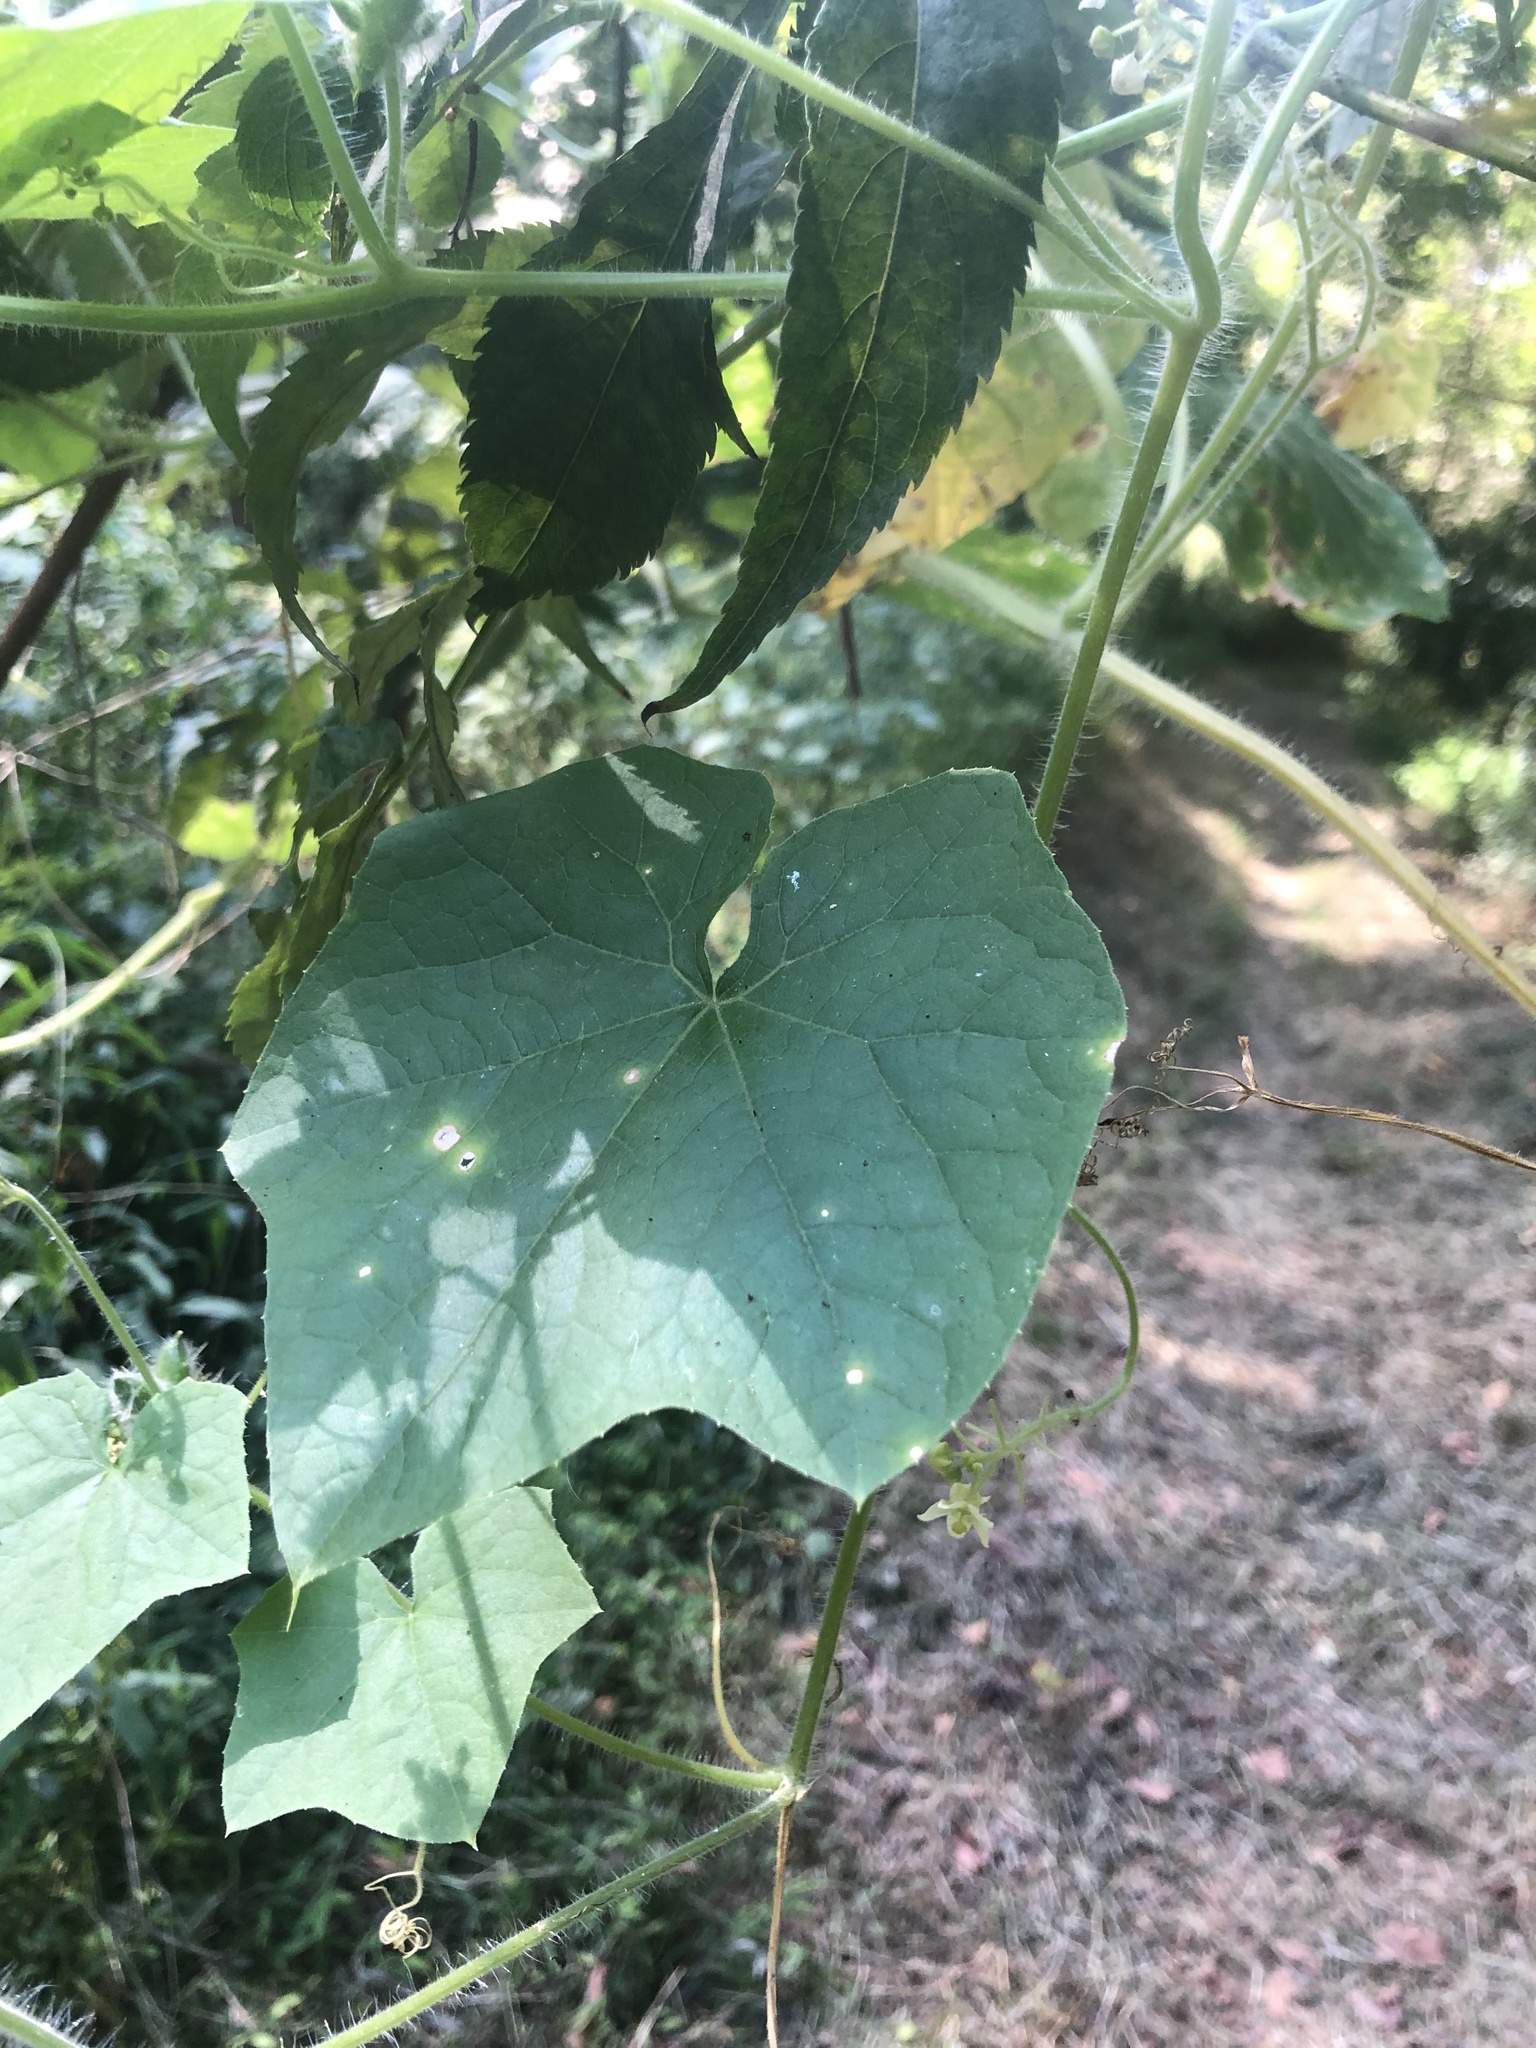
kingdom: Plantae
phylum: Tracheophyta
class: Magnoliopsida
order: Cucurbitales
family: Cucurbitaceae
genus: Sicyos
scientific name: Sicyos angulatus
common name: Angled burr cucumber
